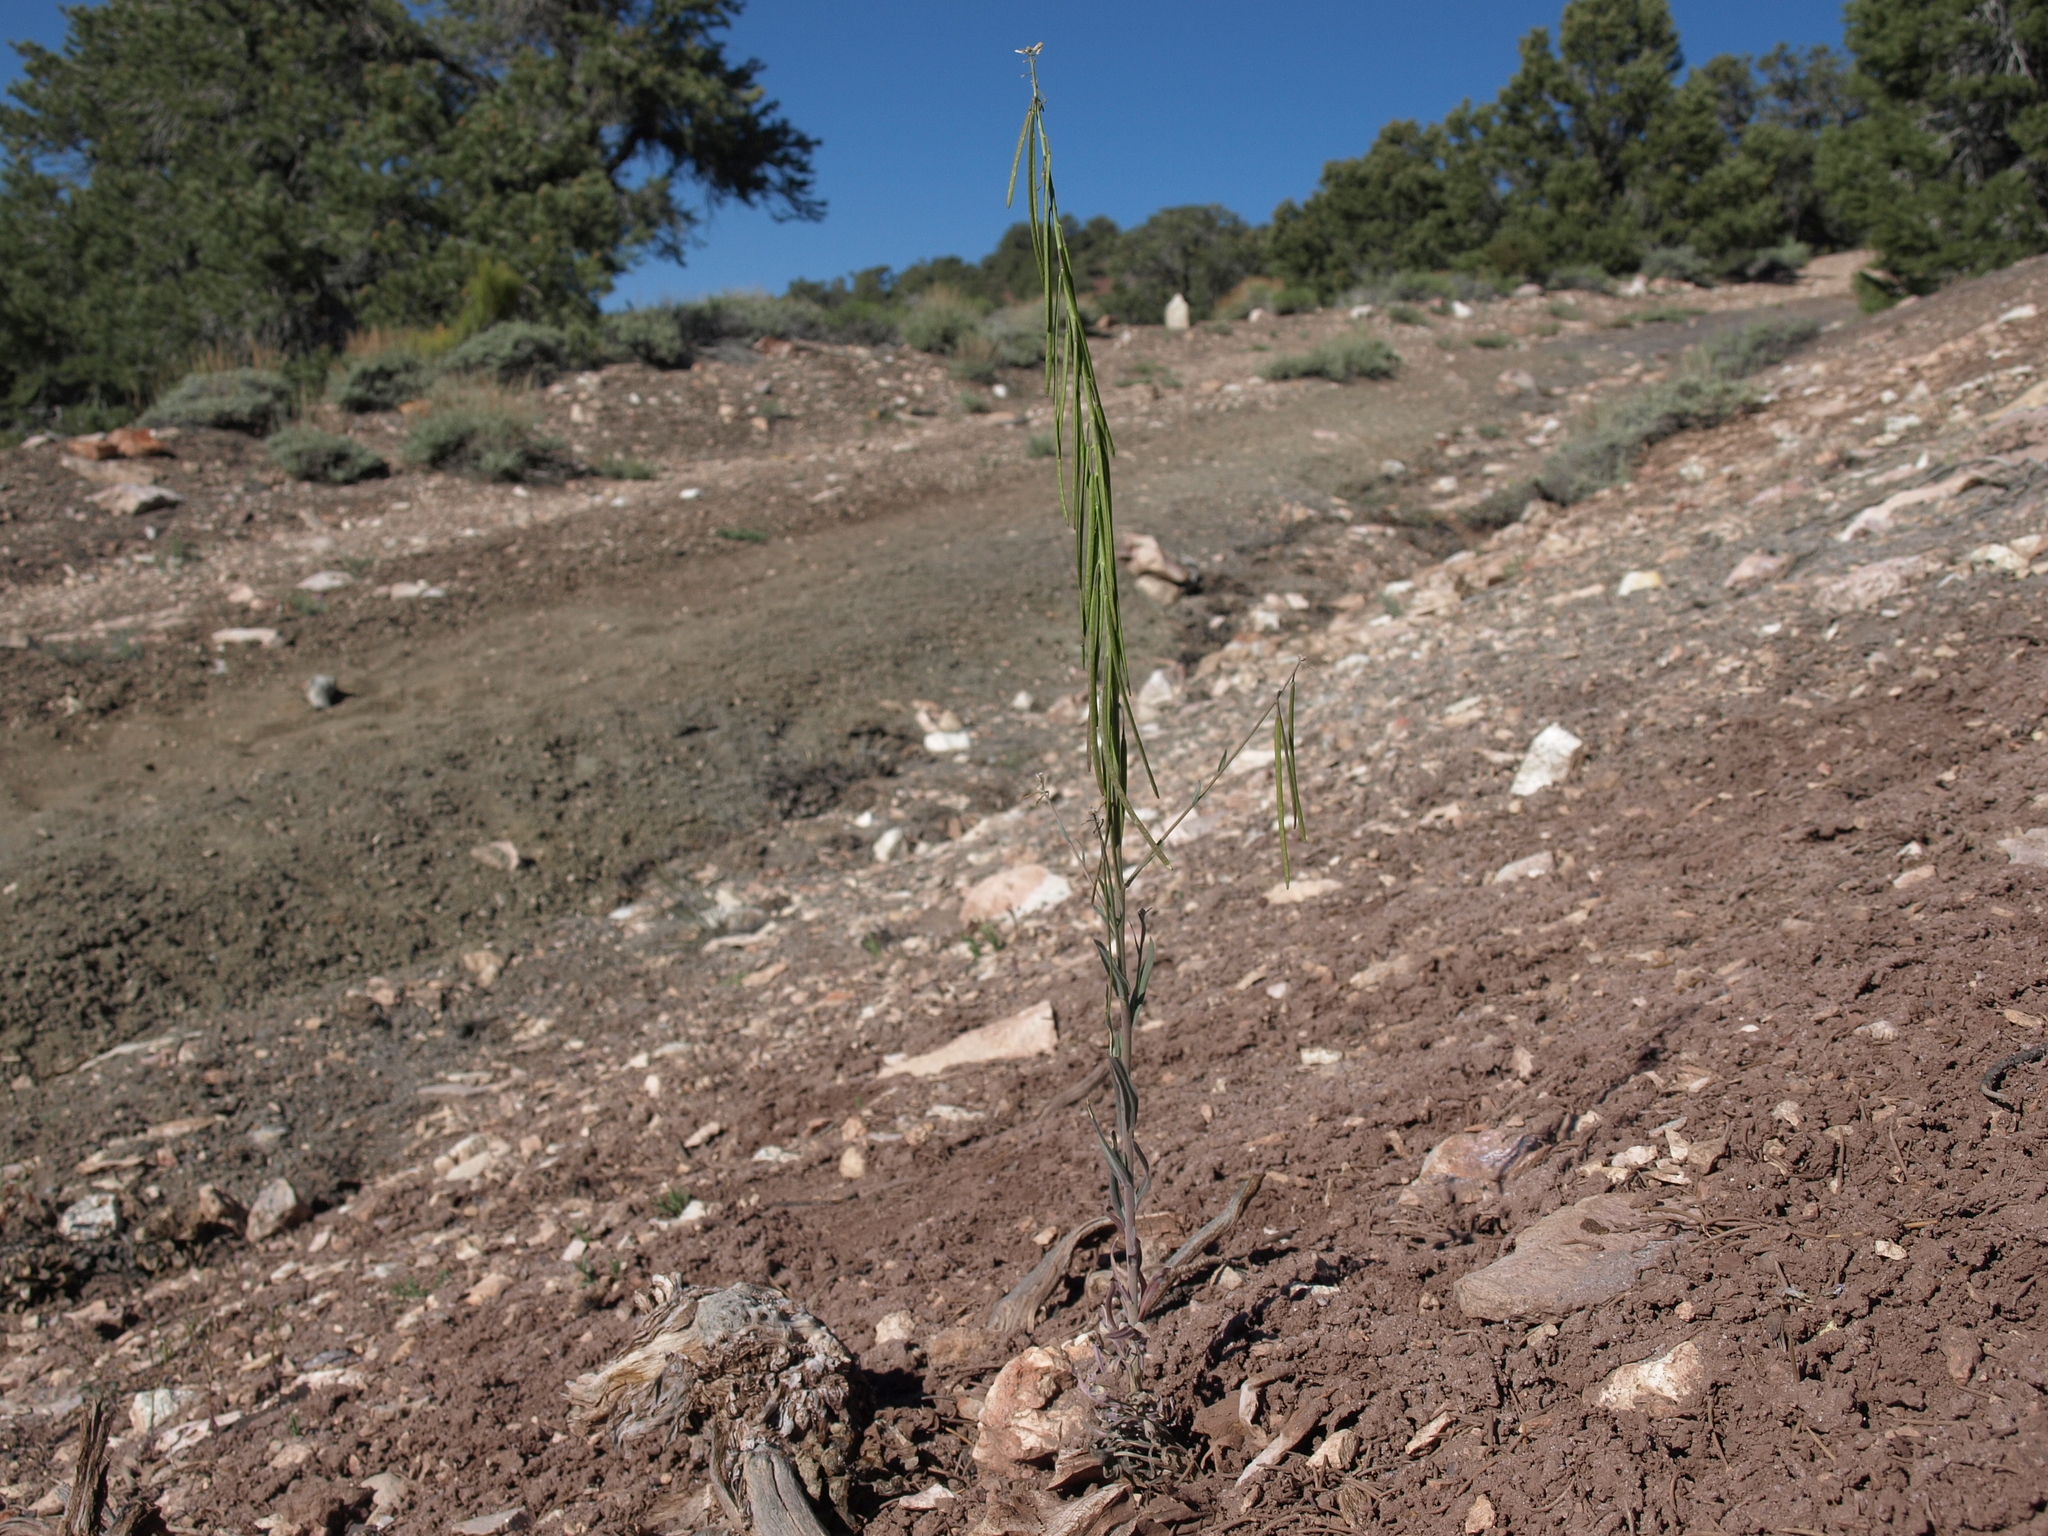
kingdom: Plantae
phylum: Tracheophyta
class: Magnoliopsida
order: Brassicales
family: Brassicaceae
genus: Boechera
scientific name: Boechera retrofracta
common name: Dangling suncress
